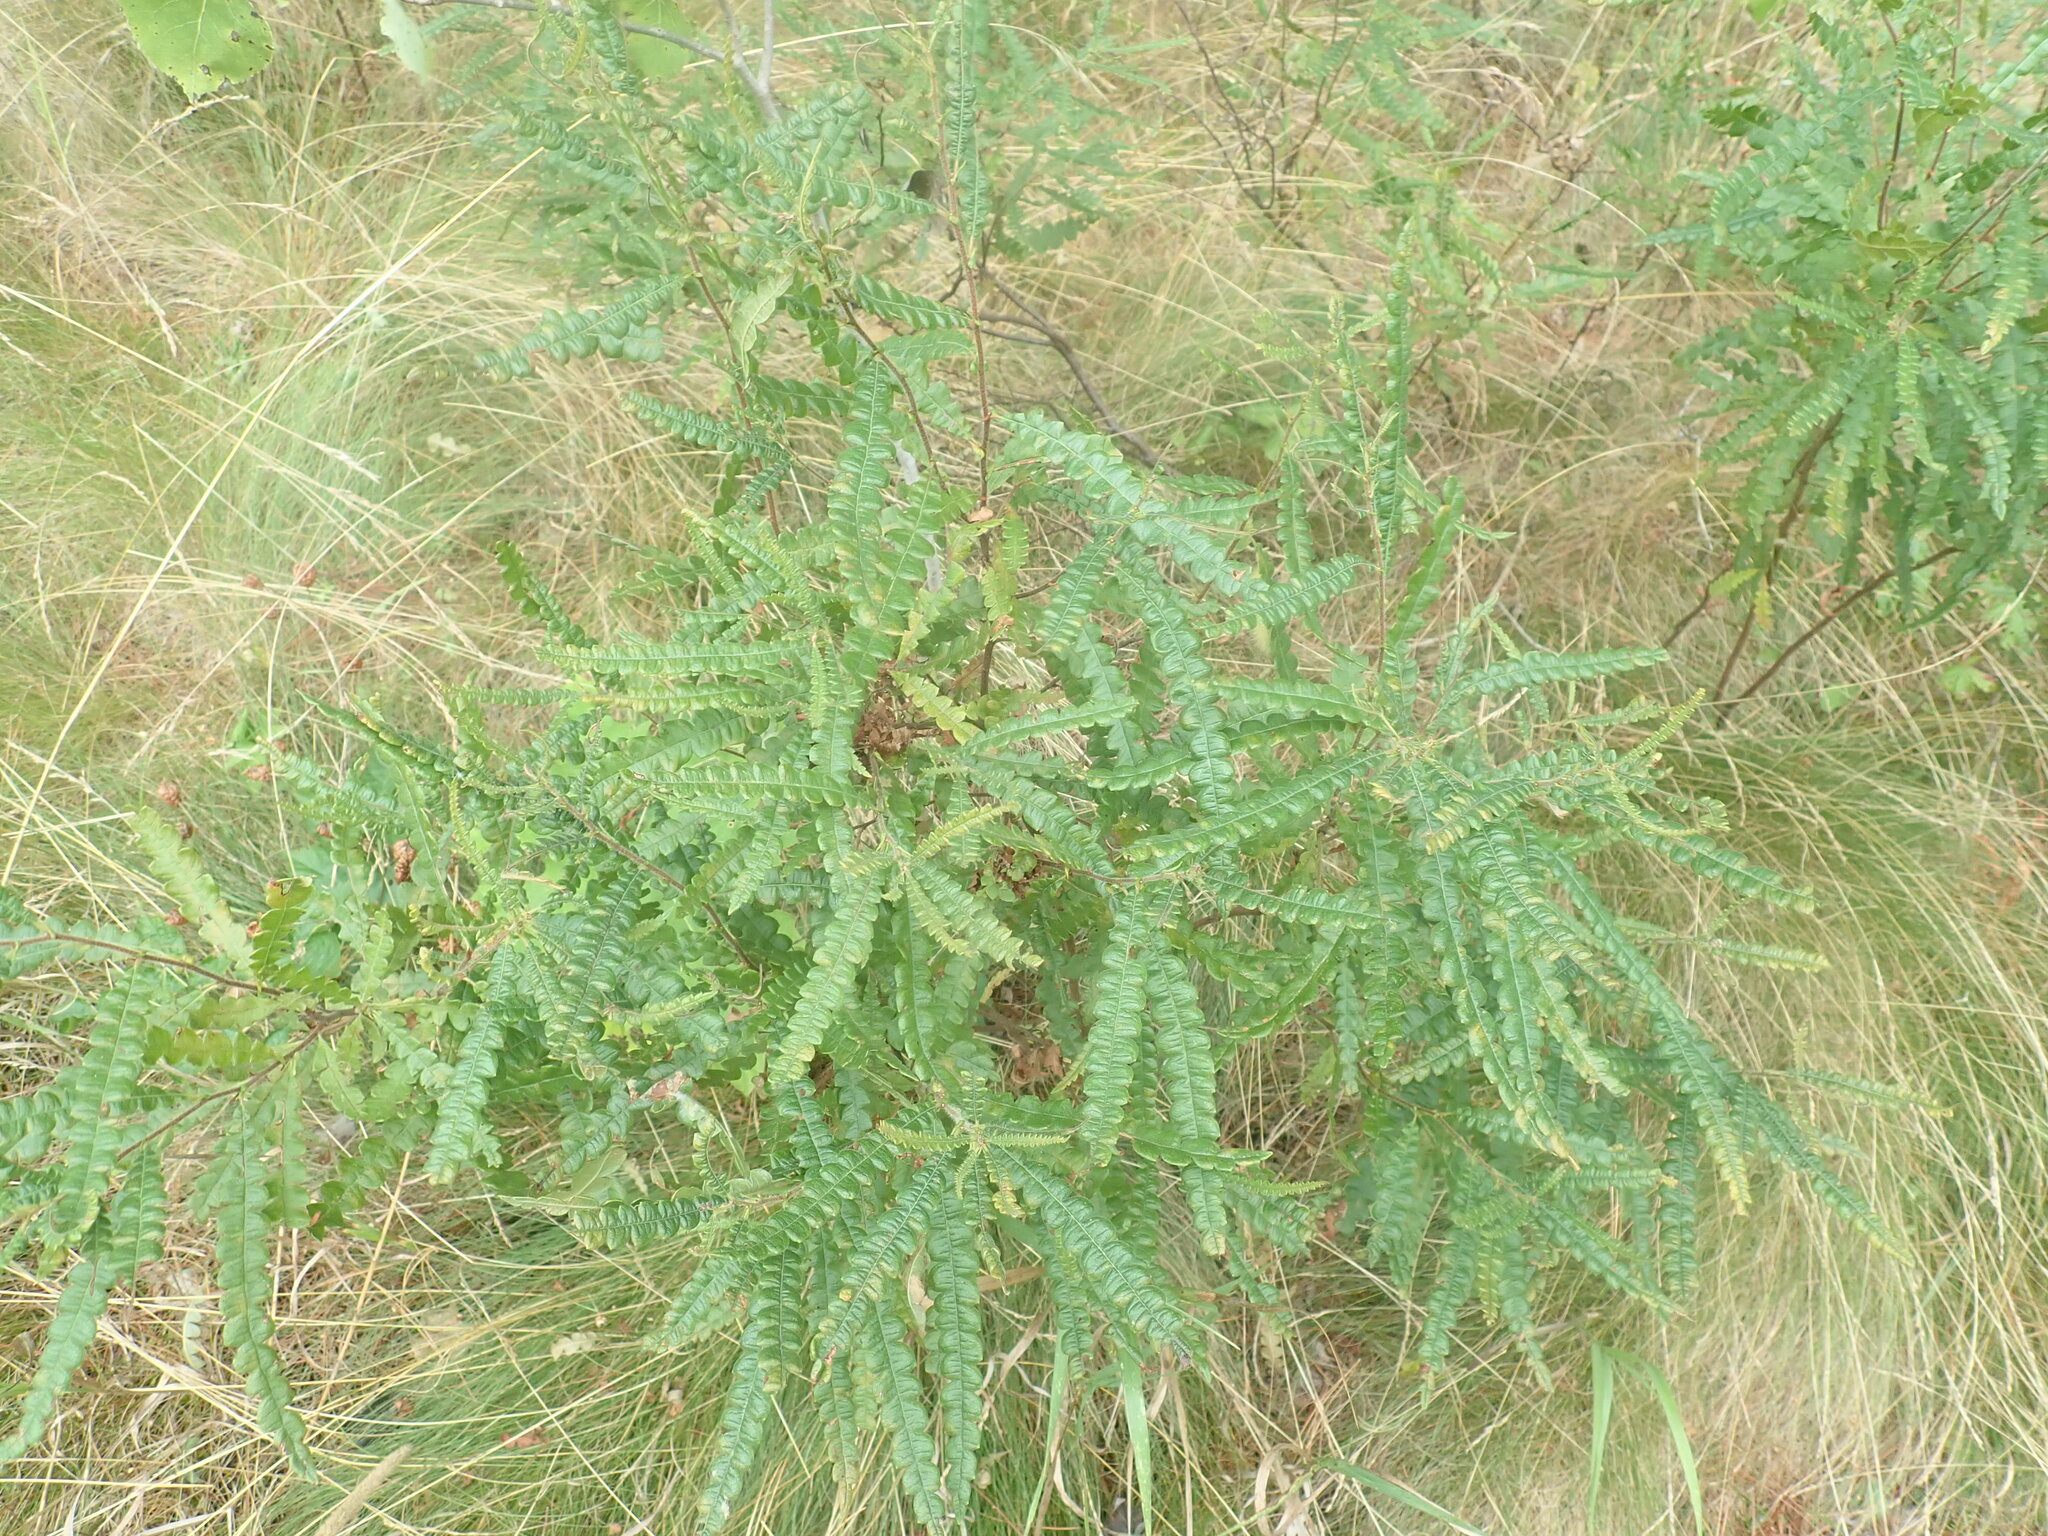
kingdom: Plantae
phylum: Tracheophyta
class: Magnoliopsida
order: Fagales
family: Myricaceae
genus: Comptonia
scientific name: Comptonia peregrina
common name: Sweet-fern
